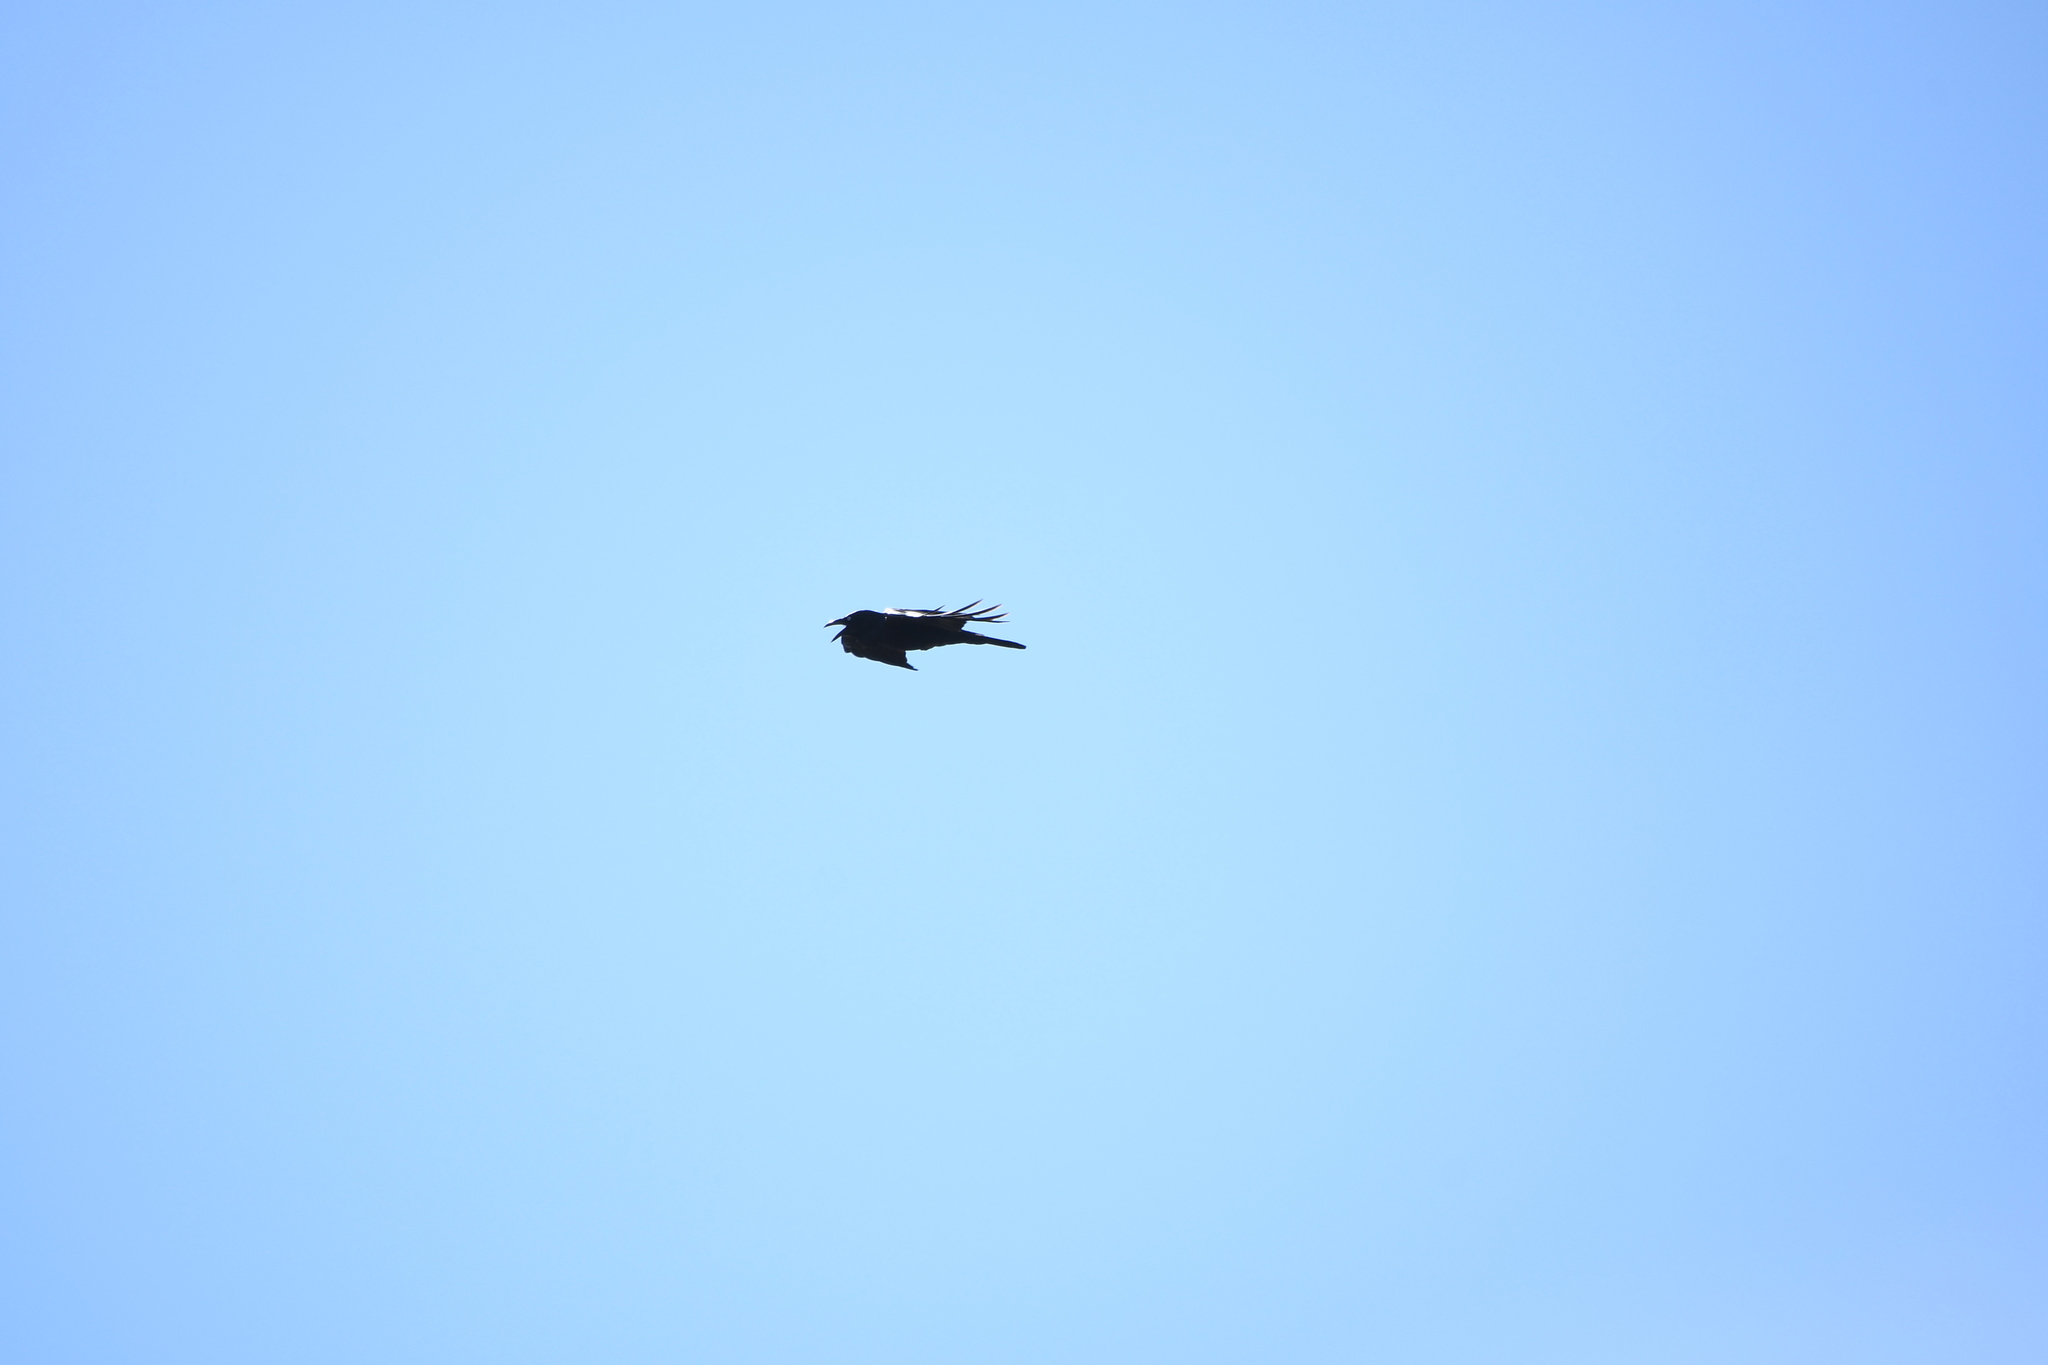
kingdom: Animalia
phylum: Chordata
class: Aves
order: Passeriformes
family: Corvidae
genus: Corvus
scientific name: Corvus coronoides
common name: Australian raven
